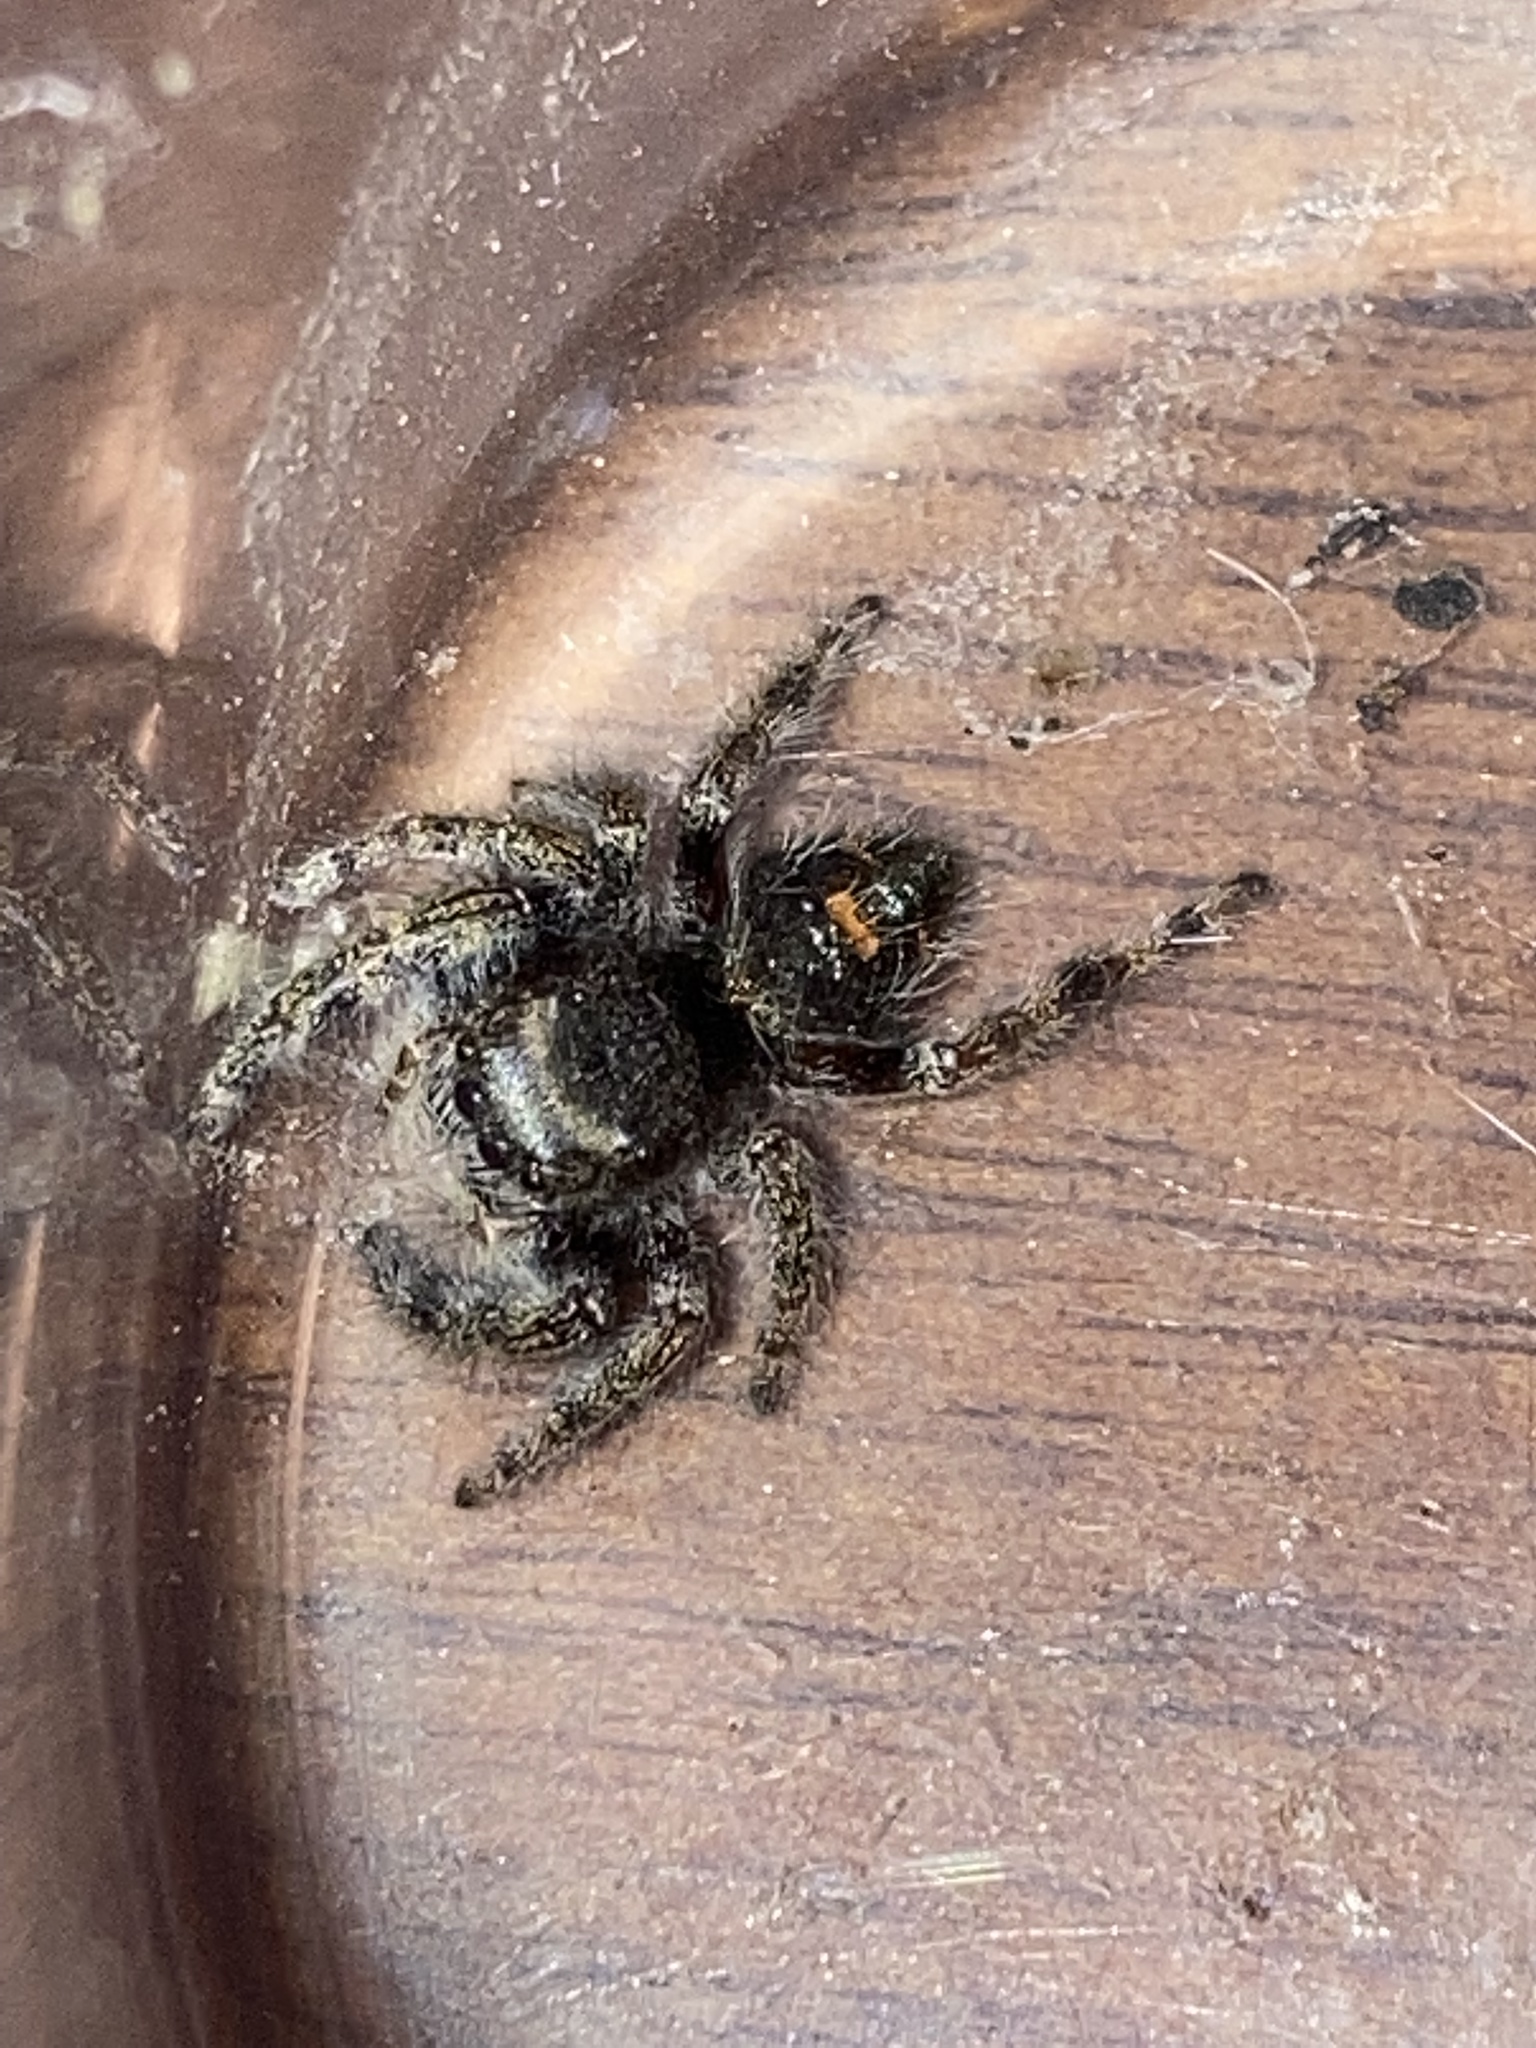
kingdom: Animalia
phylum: Arthropoda
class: Arachnida
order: Araneae
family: Salticidae
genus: Phidippus
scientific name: Phidippus audax
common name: Bold jumper
